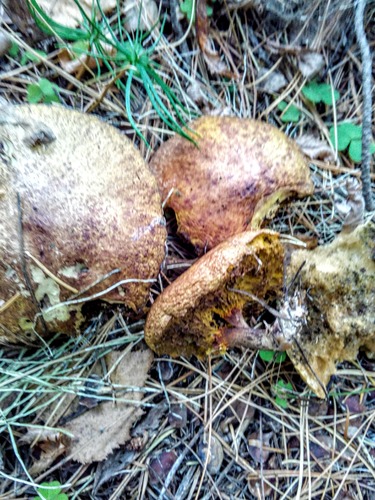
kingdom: Fungi
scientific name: Fungi
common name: Fungi
